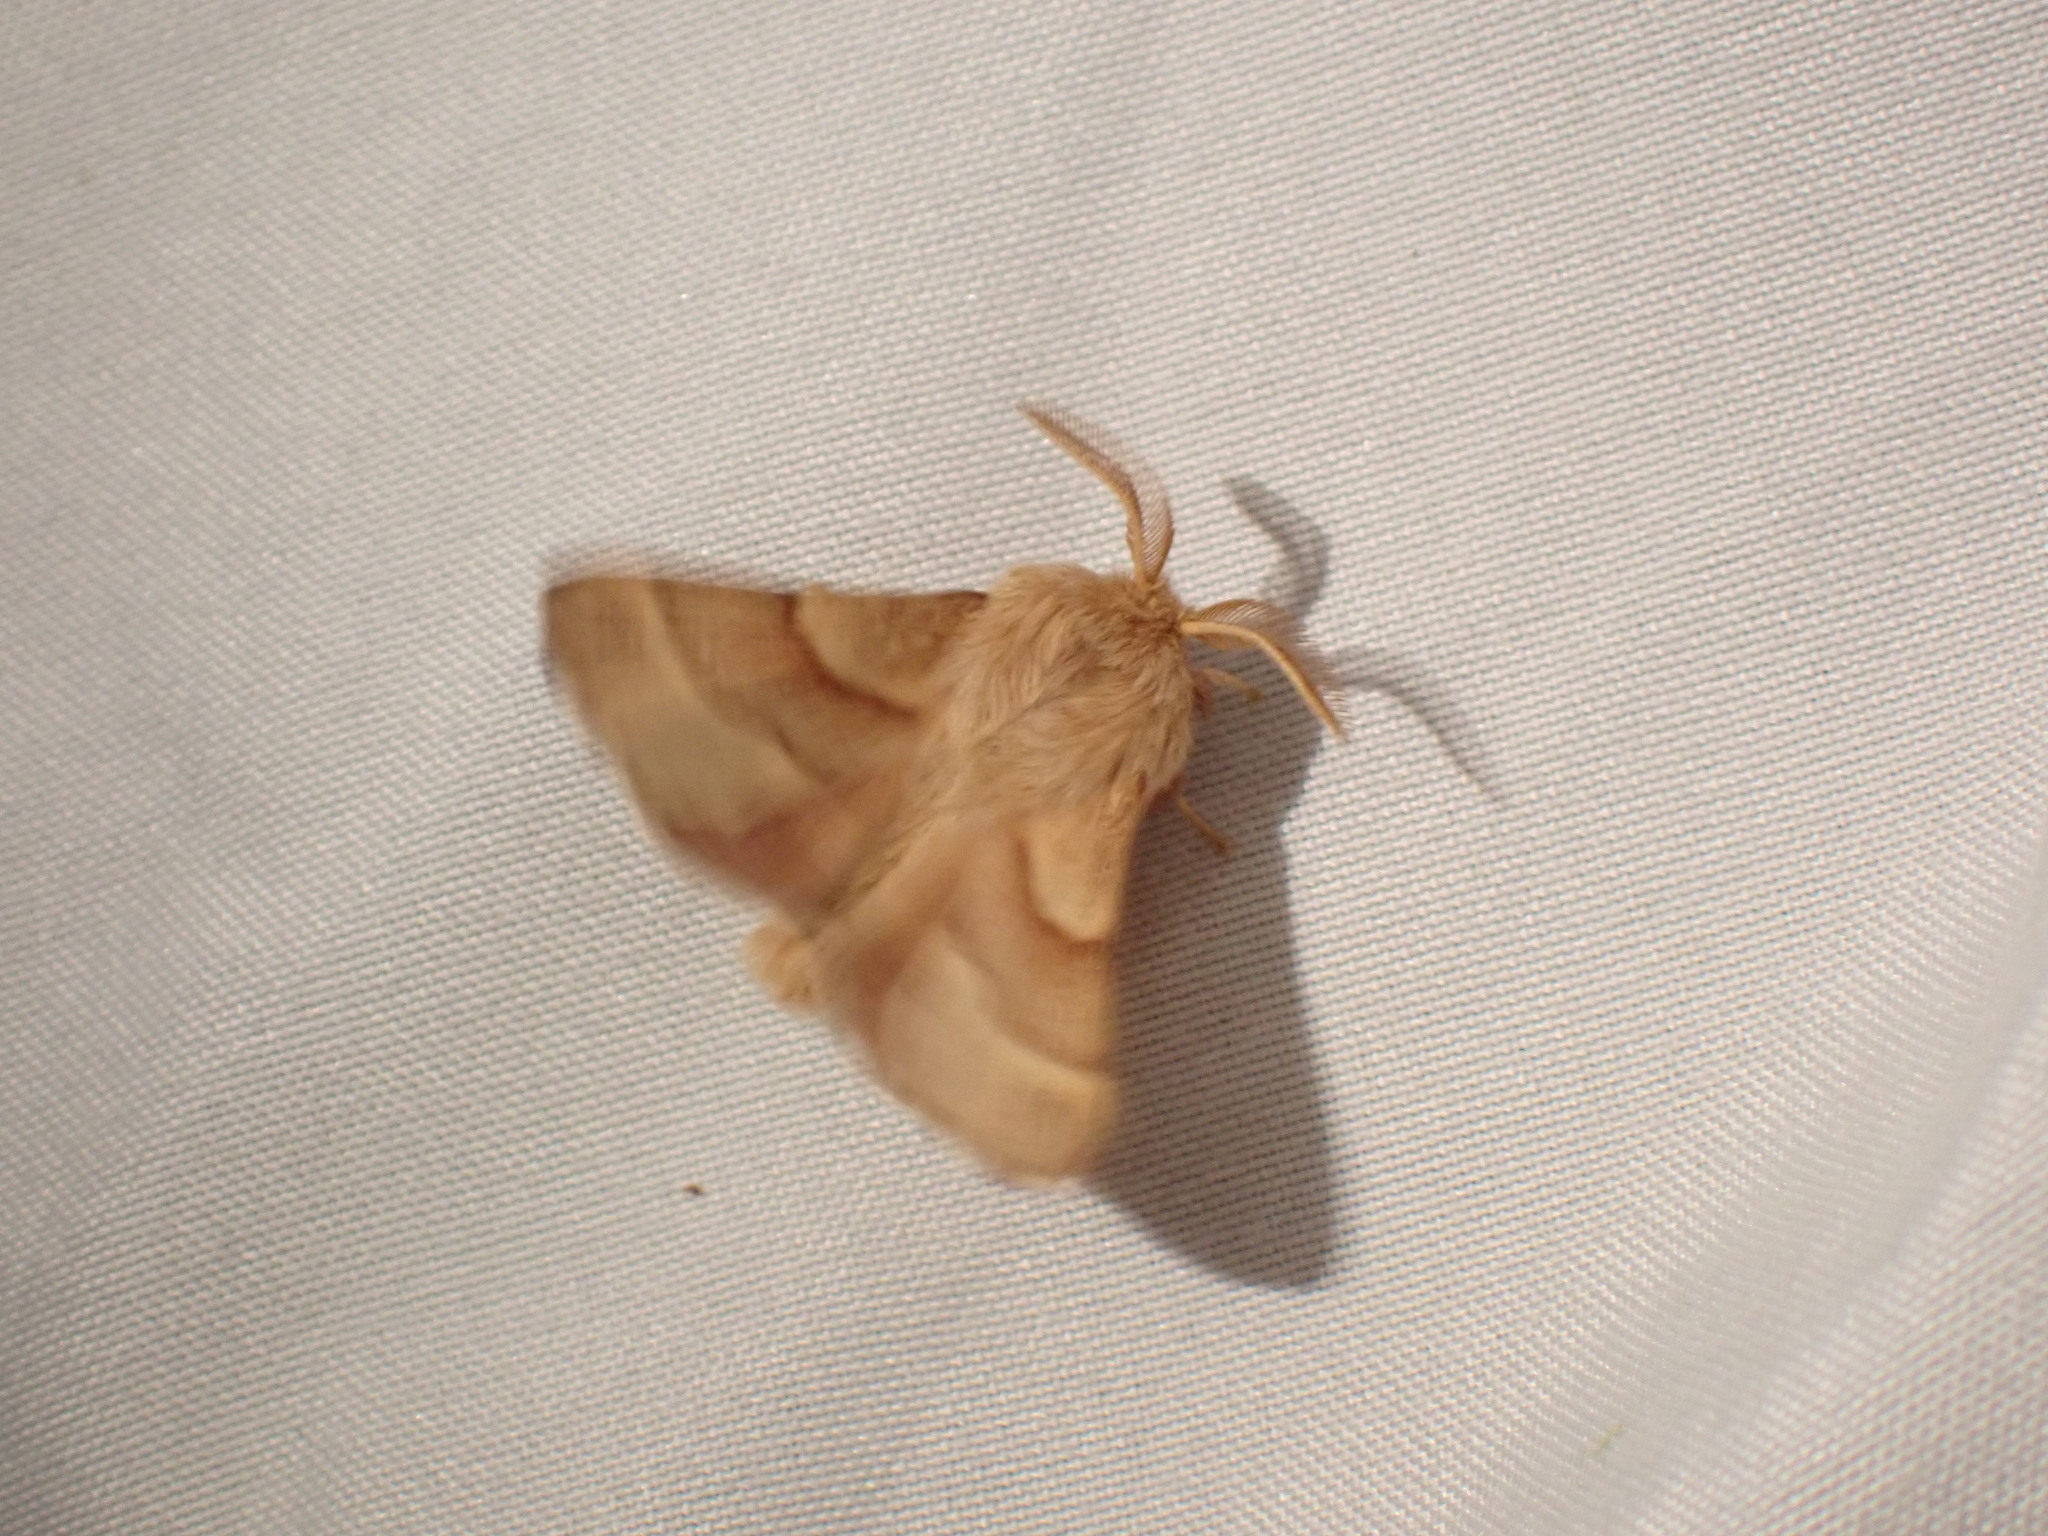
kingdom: Animalia
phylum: Arthropoda
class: Insecta
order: Lepidoptera
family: Lasiocampidae
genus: Malacosoma
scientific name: Malacosoma californica
